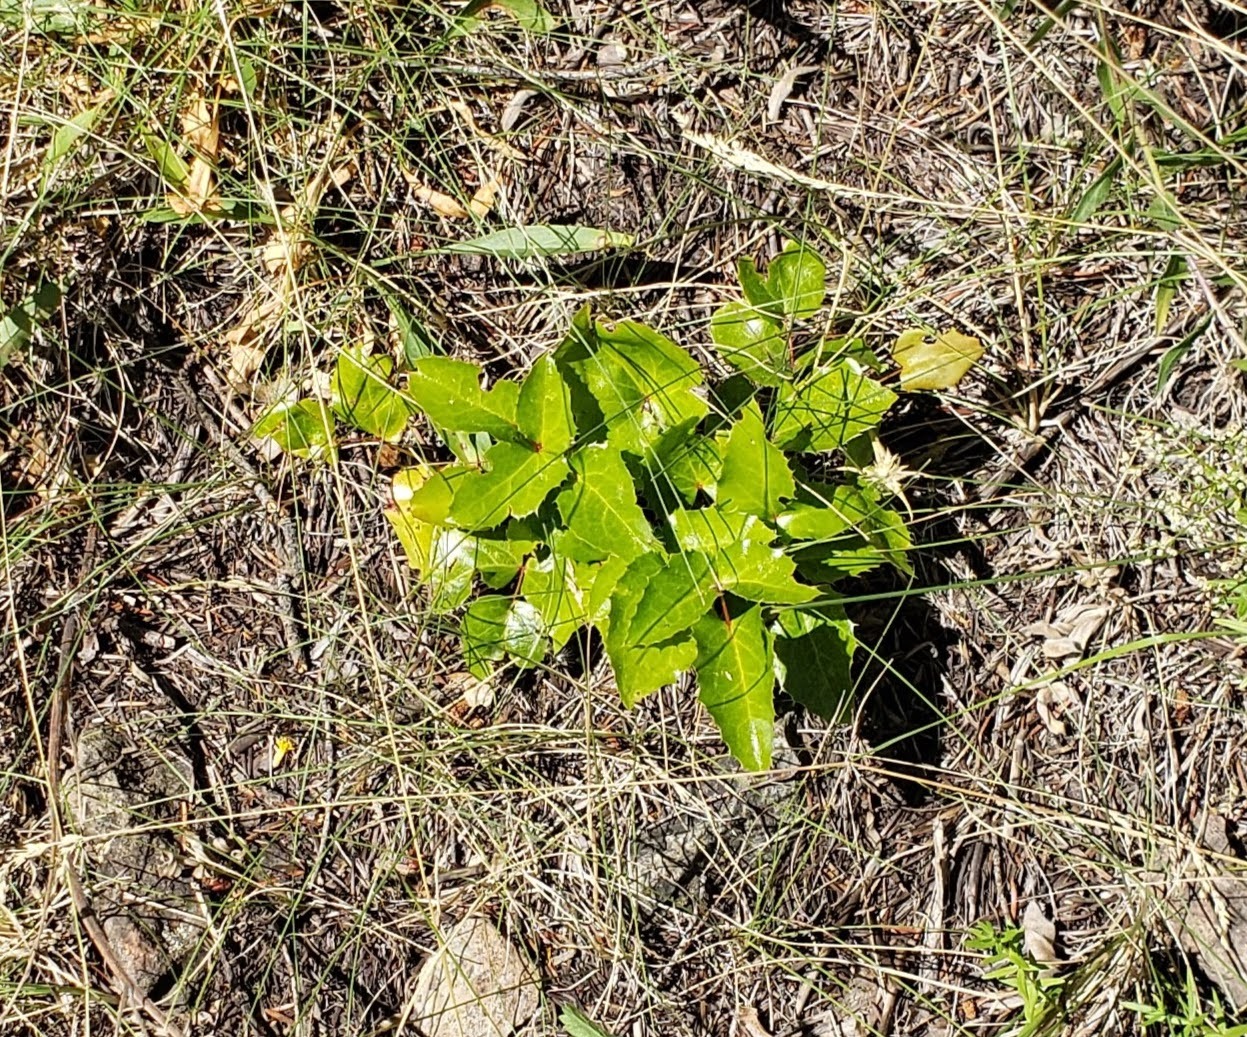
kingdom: Plantae
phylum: Tracheophyta
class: Magnoliopsida
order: Ranunculales
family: Berberidaceae
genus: Mahonia
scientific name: Mahonia aquifolium
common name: Oregon-grape
